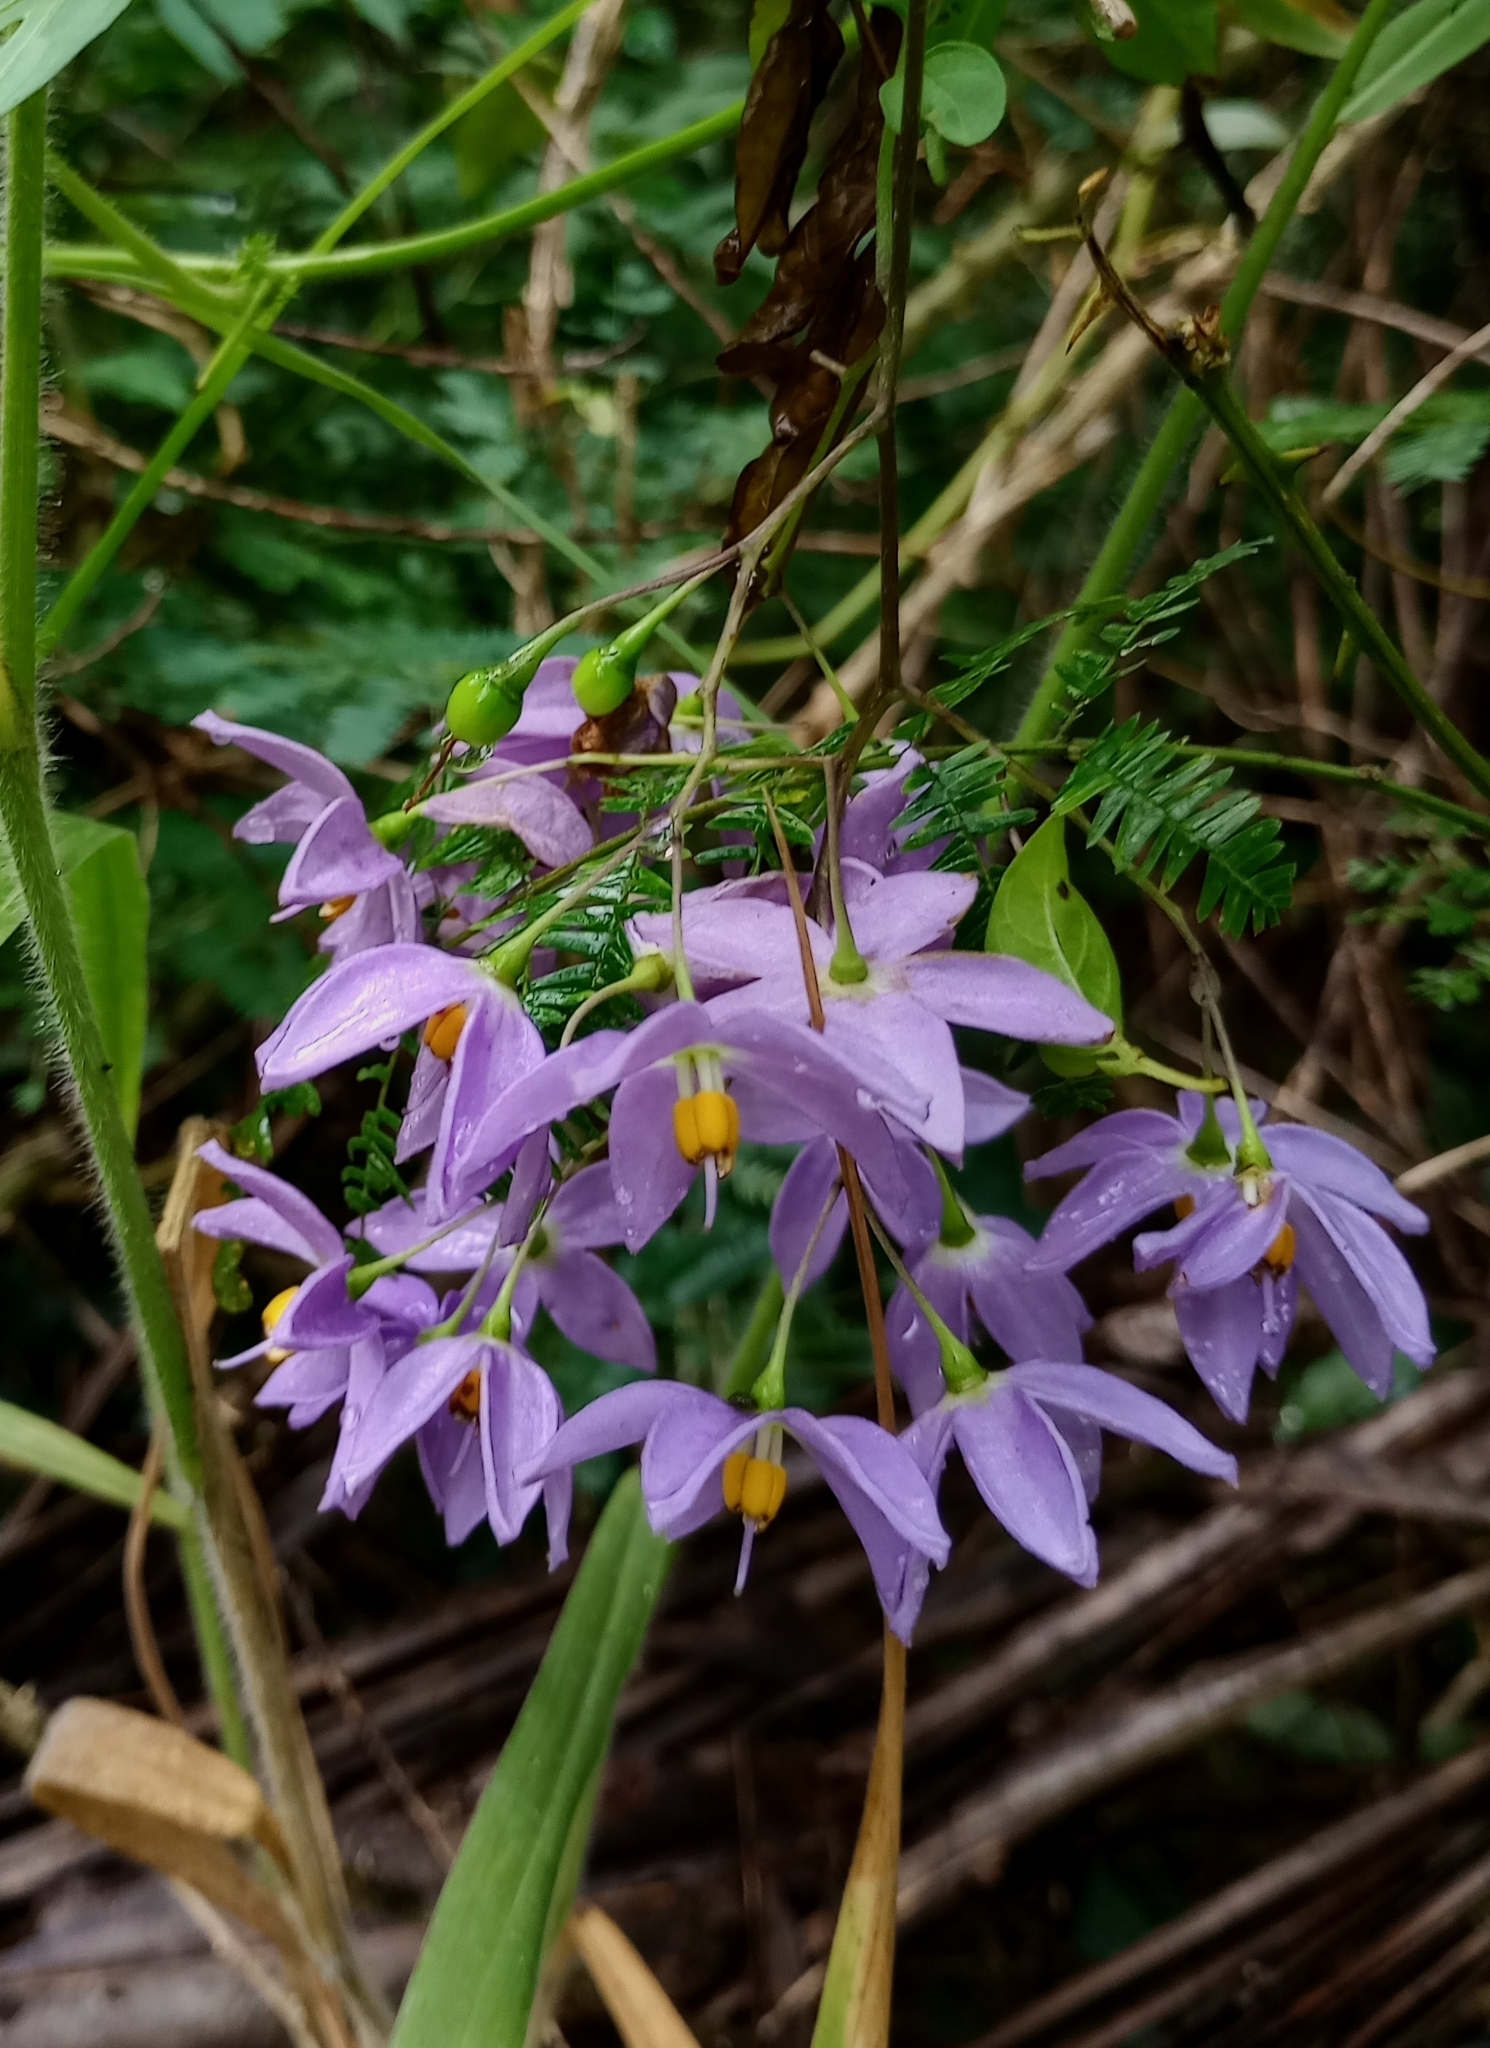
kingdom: Plantae
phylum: Tracheophyta
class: Magnoliopsida
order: Solanales
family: Solanaceae
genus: Solanum
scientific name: Solanum seaforthianum
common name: Brazilian nightshade
